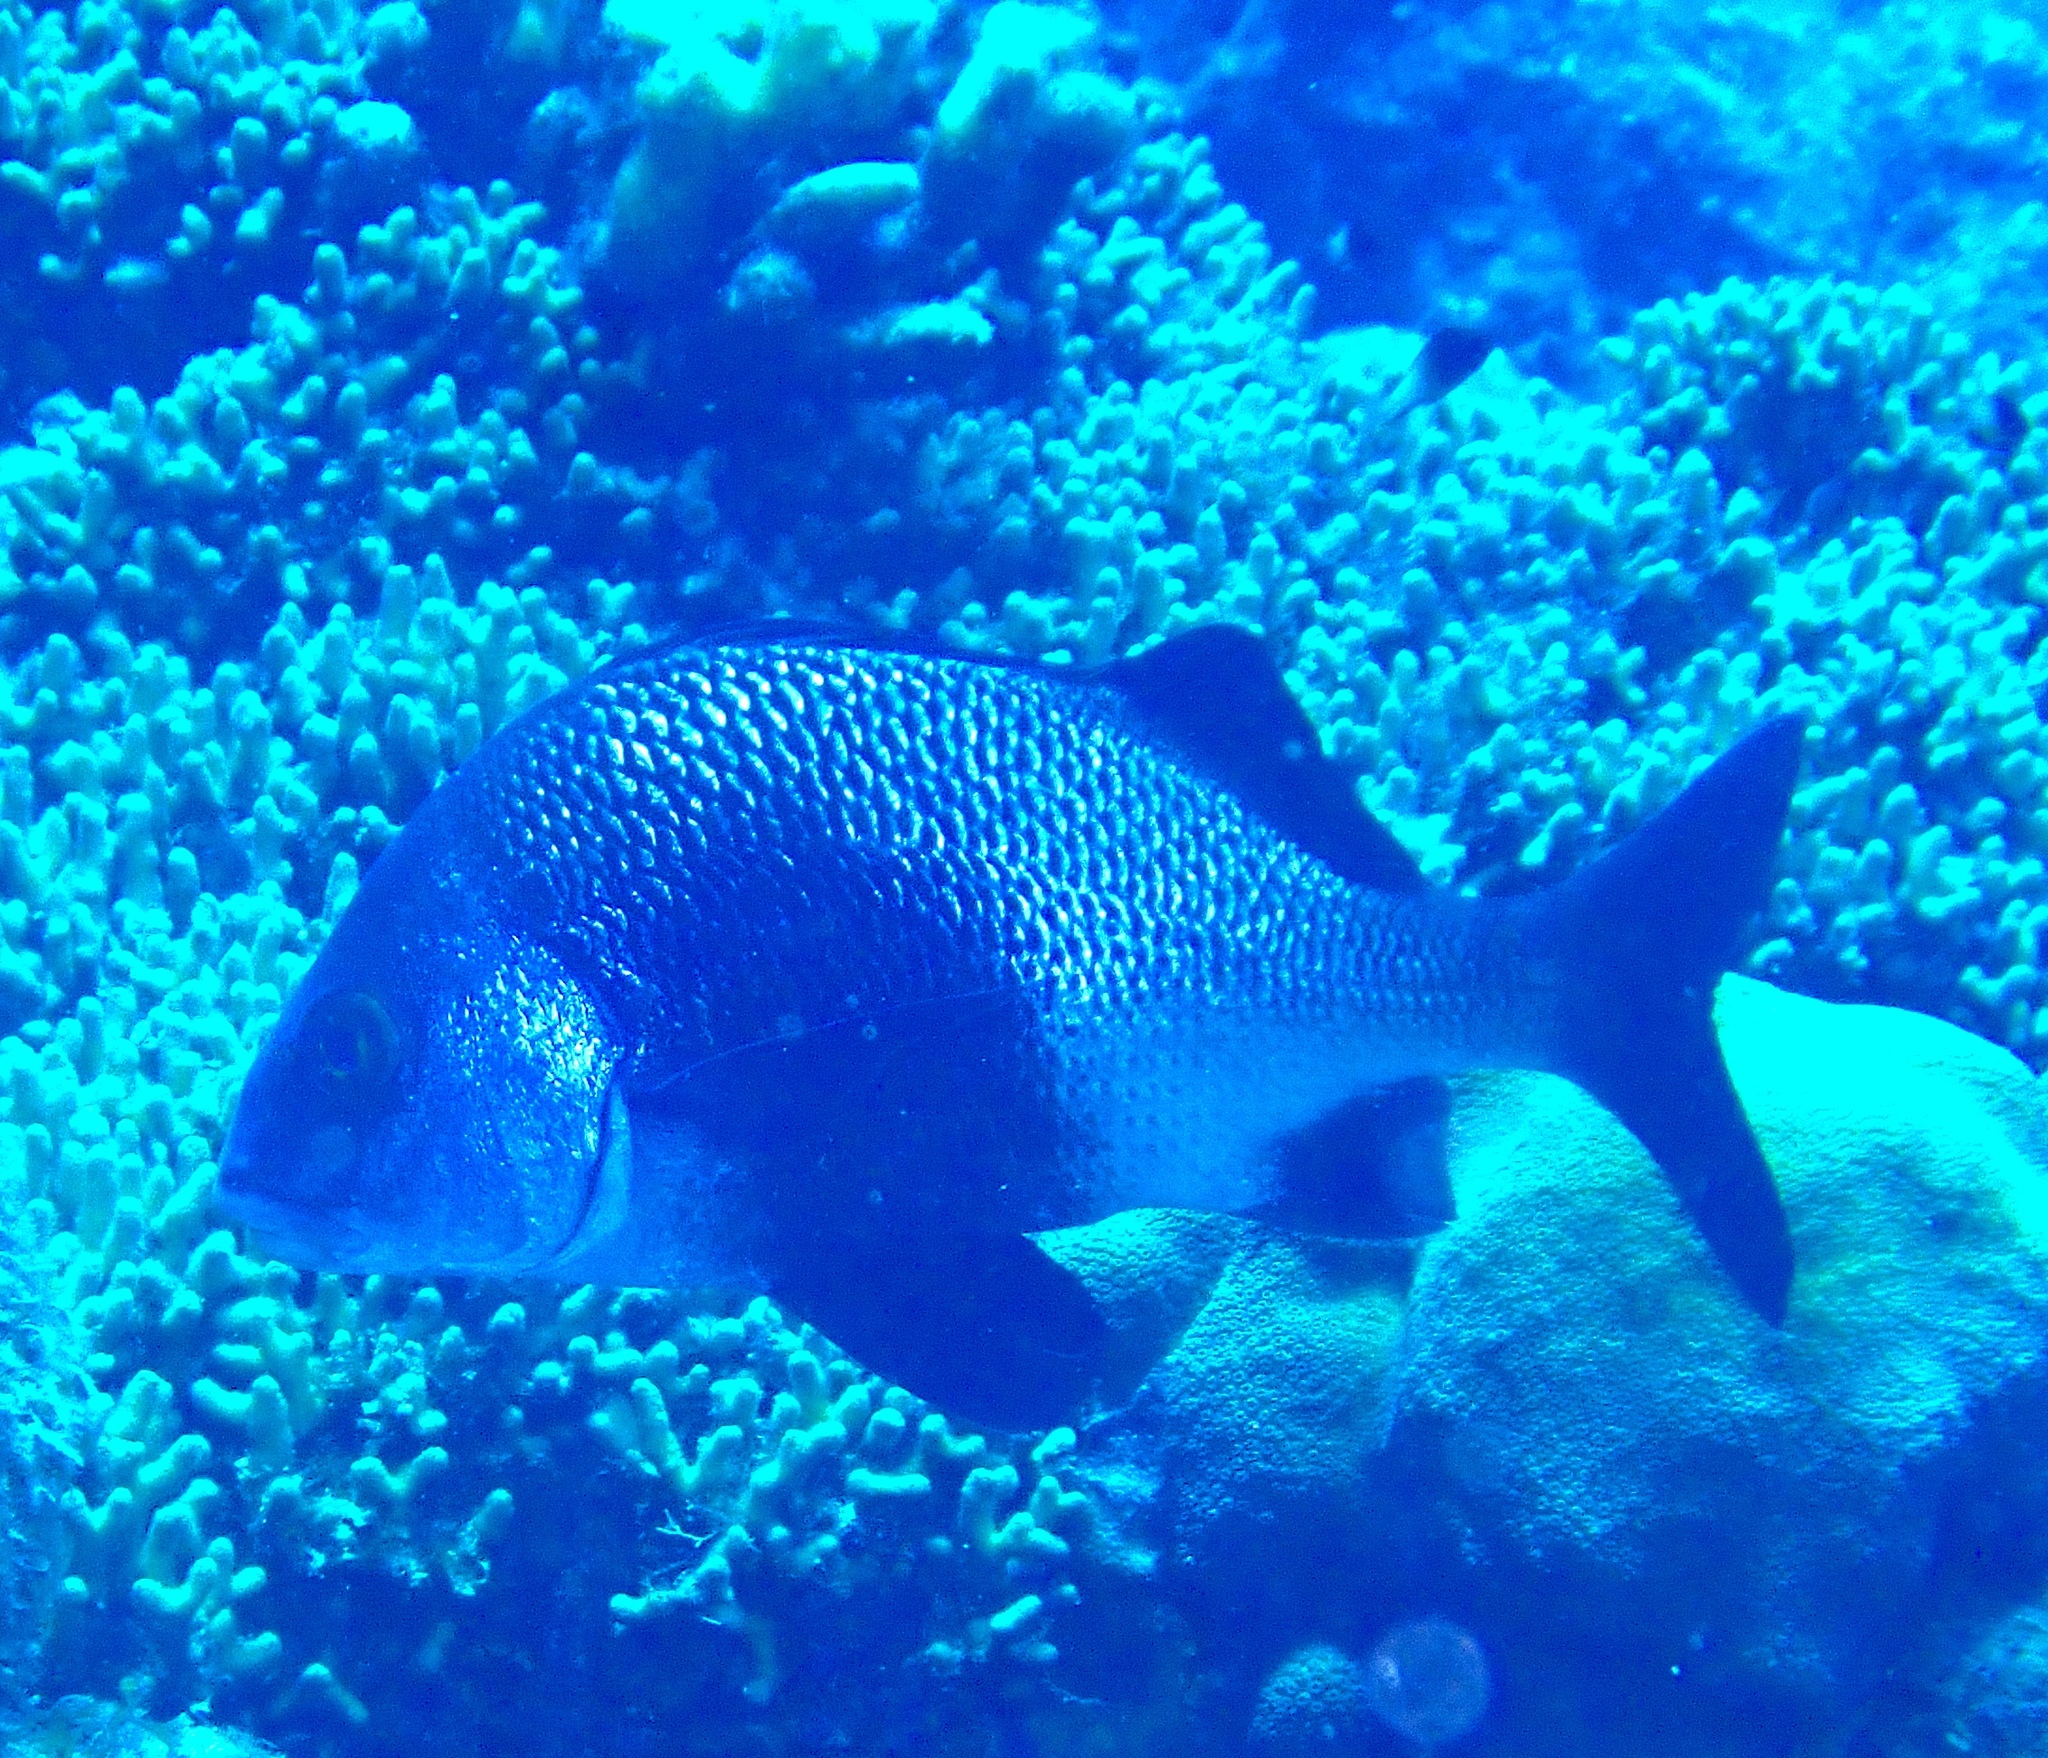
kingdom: Animalia
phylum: Chordata
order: Perciformes
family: Haemulidae
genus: Anisotremus
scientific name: Anisotremus surinamensis
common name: Black margate
